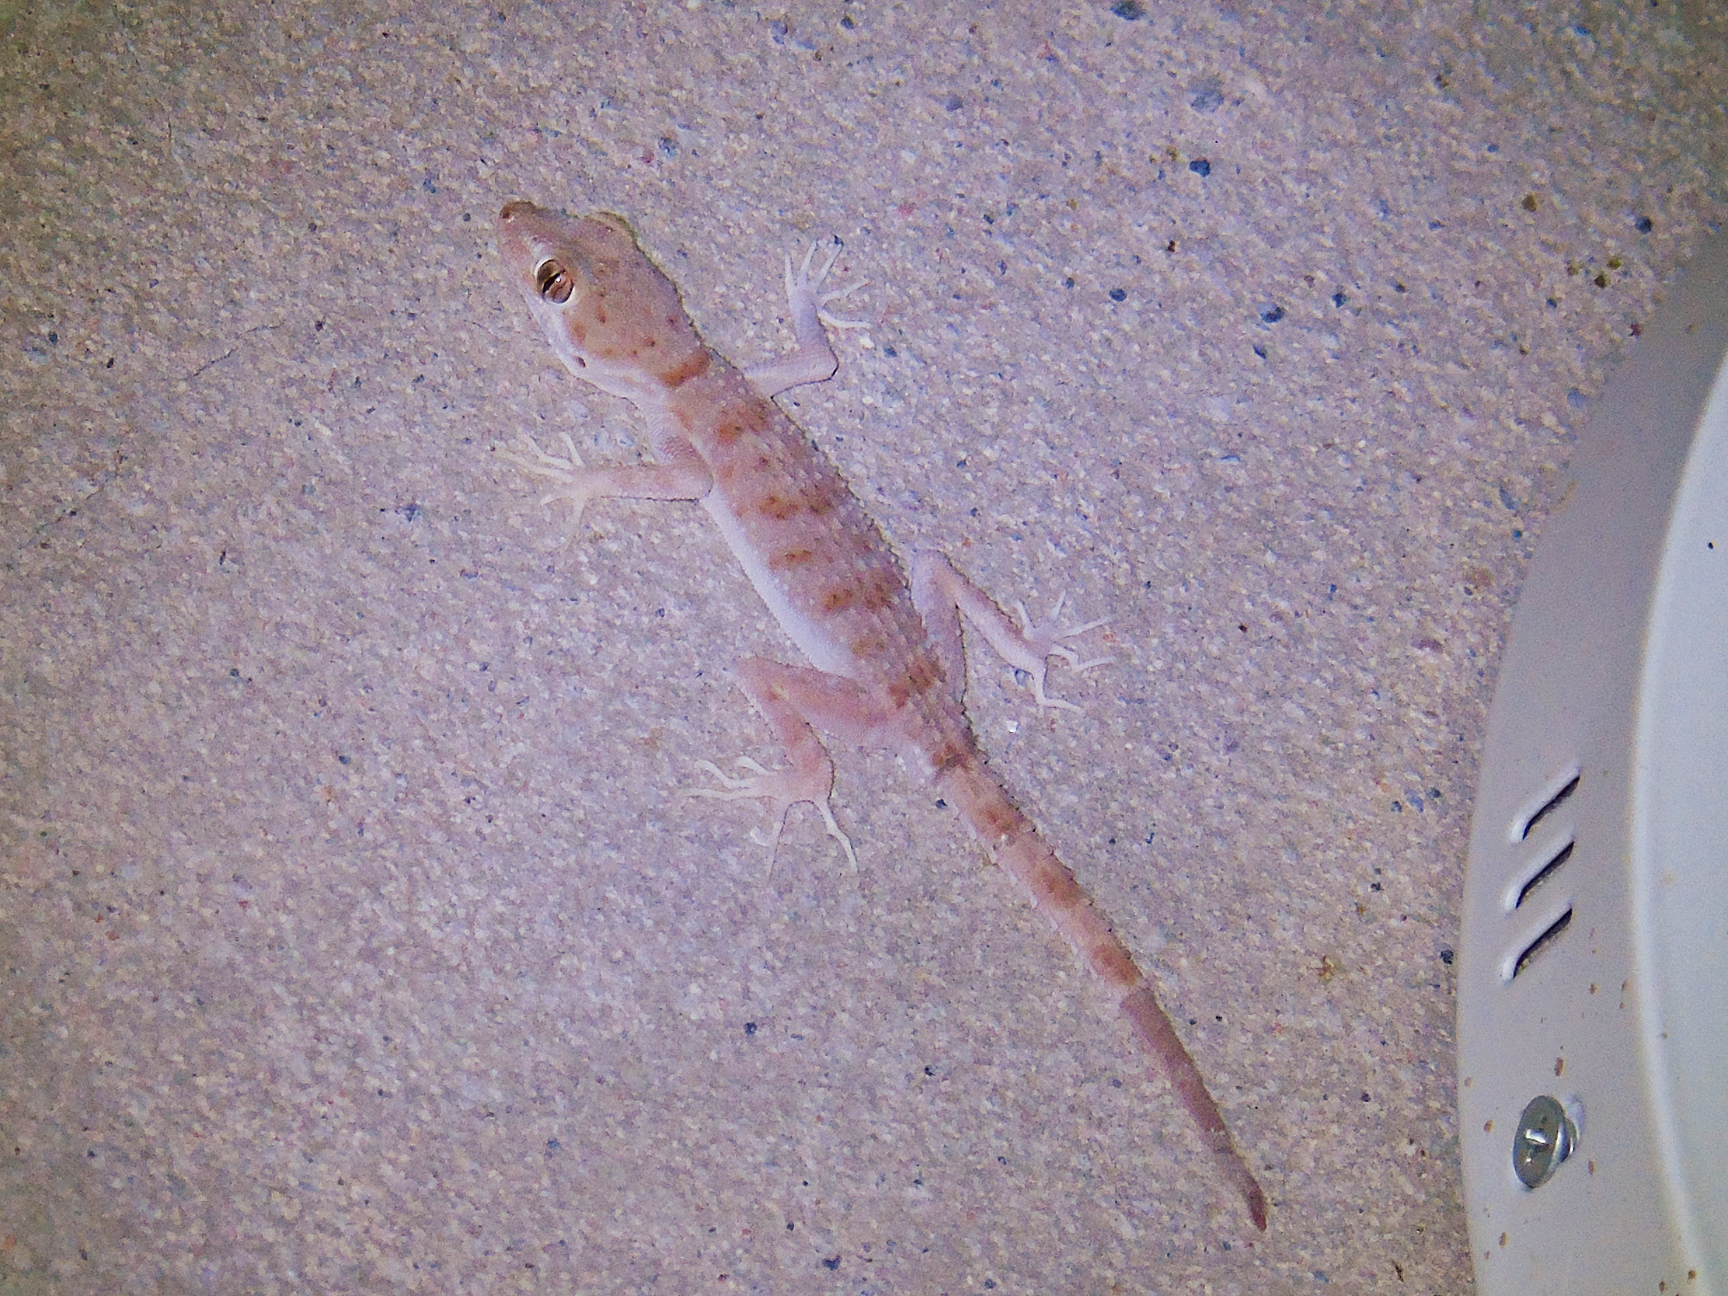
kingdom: Animalia
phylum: Chordata
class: Squamata
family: Gekkonidae
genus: Tenuidactylus
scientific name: Tenuidactylus bogdanovi
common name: Bogdanov’s thin-toed gecko
